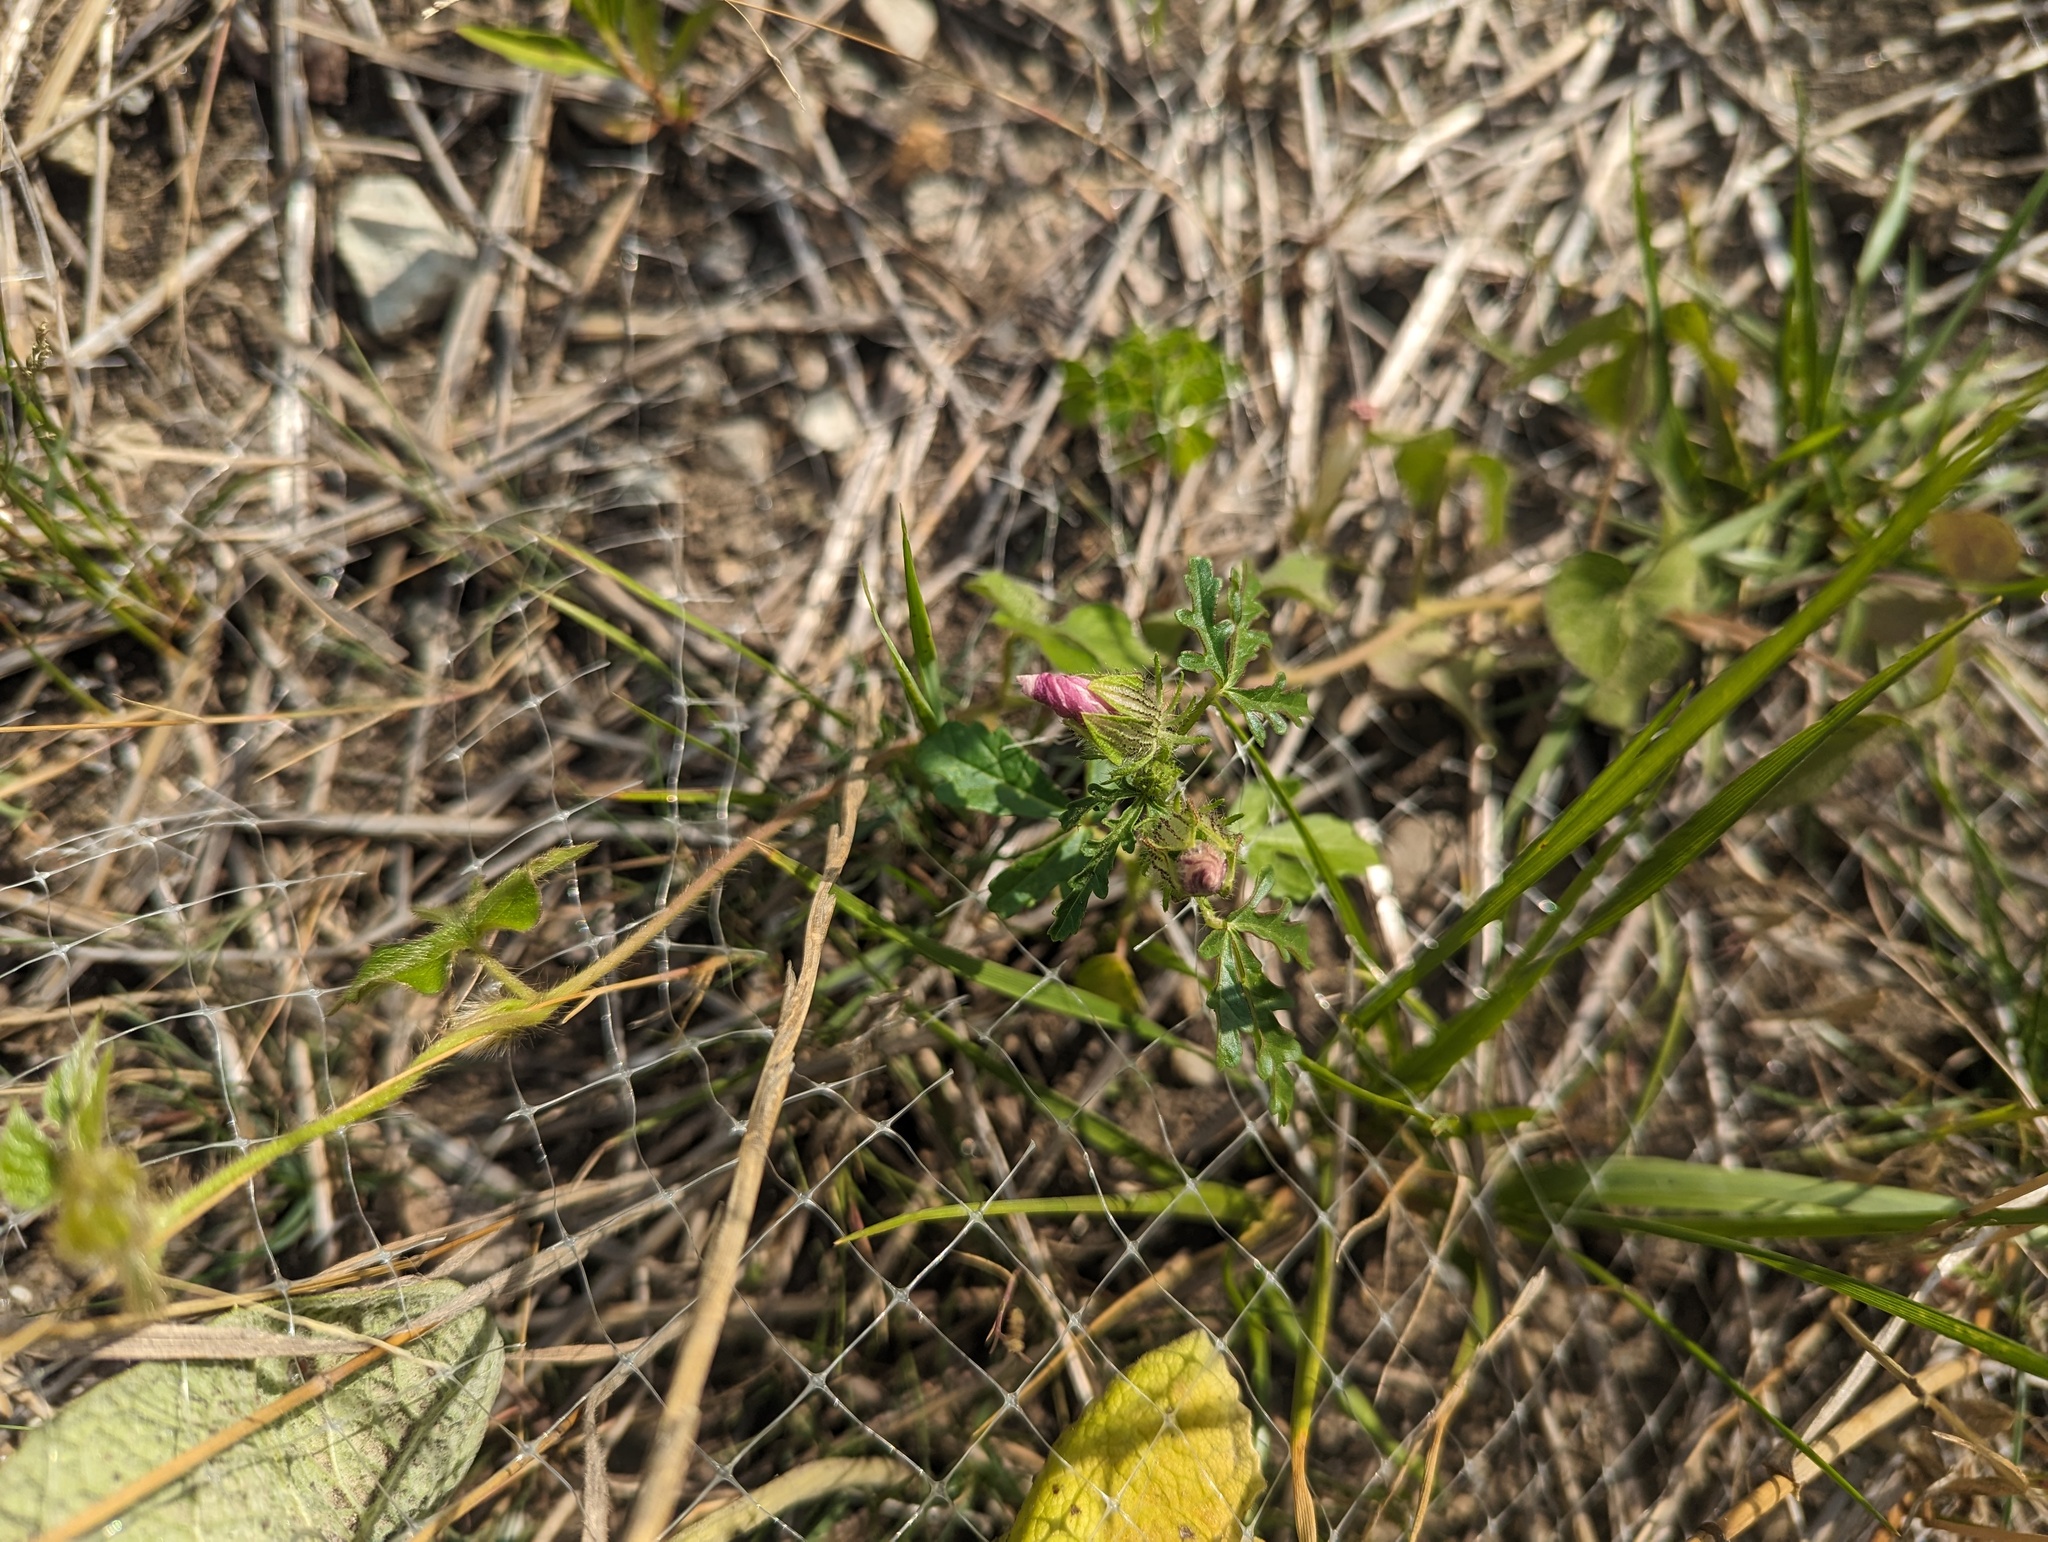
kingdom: Plantae
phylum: Tracheophyta
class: Magnoliopsida
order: Malvales
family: Malvaceae
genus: Hibiscus
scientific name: Hibiscus trionum
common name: Bladder ketmia
